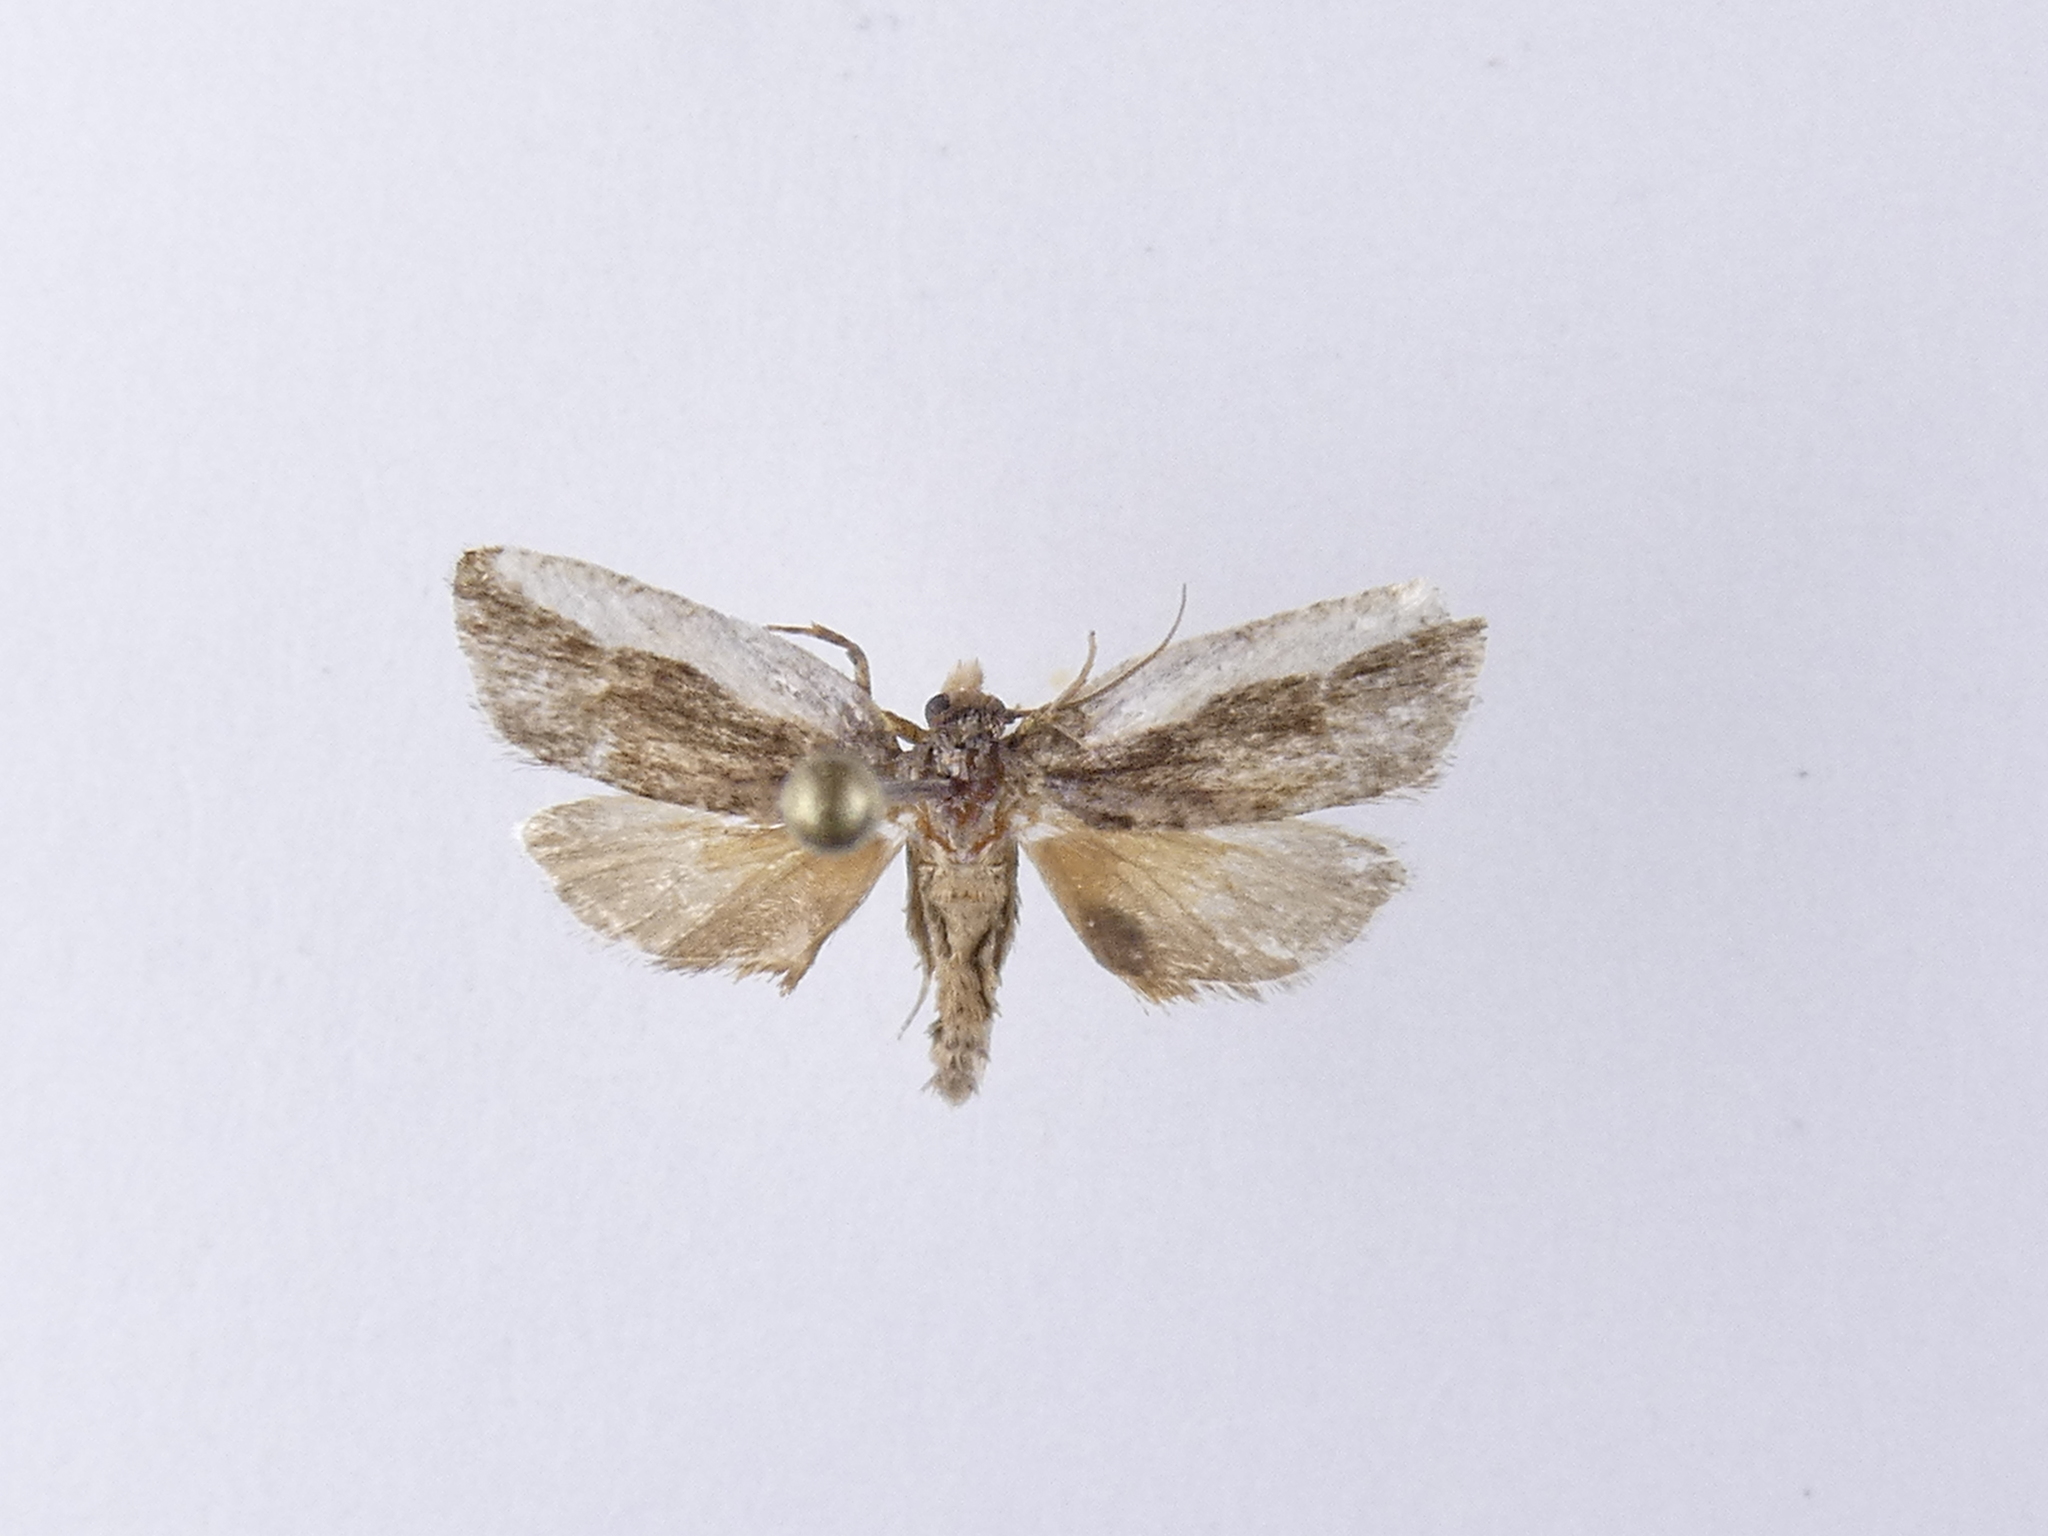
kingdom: Animalia
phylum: Arthropoda
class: Insecta
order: Lepidoptera
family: Tortricidae
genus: Argyroploce
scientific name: Argyroploce chlorosaris
